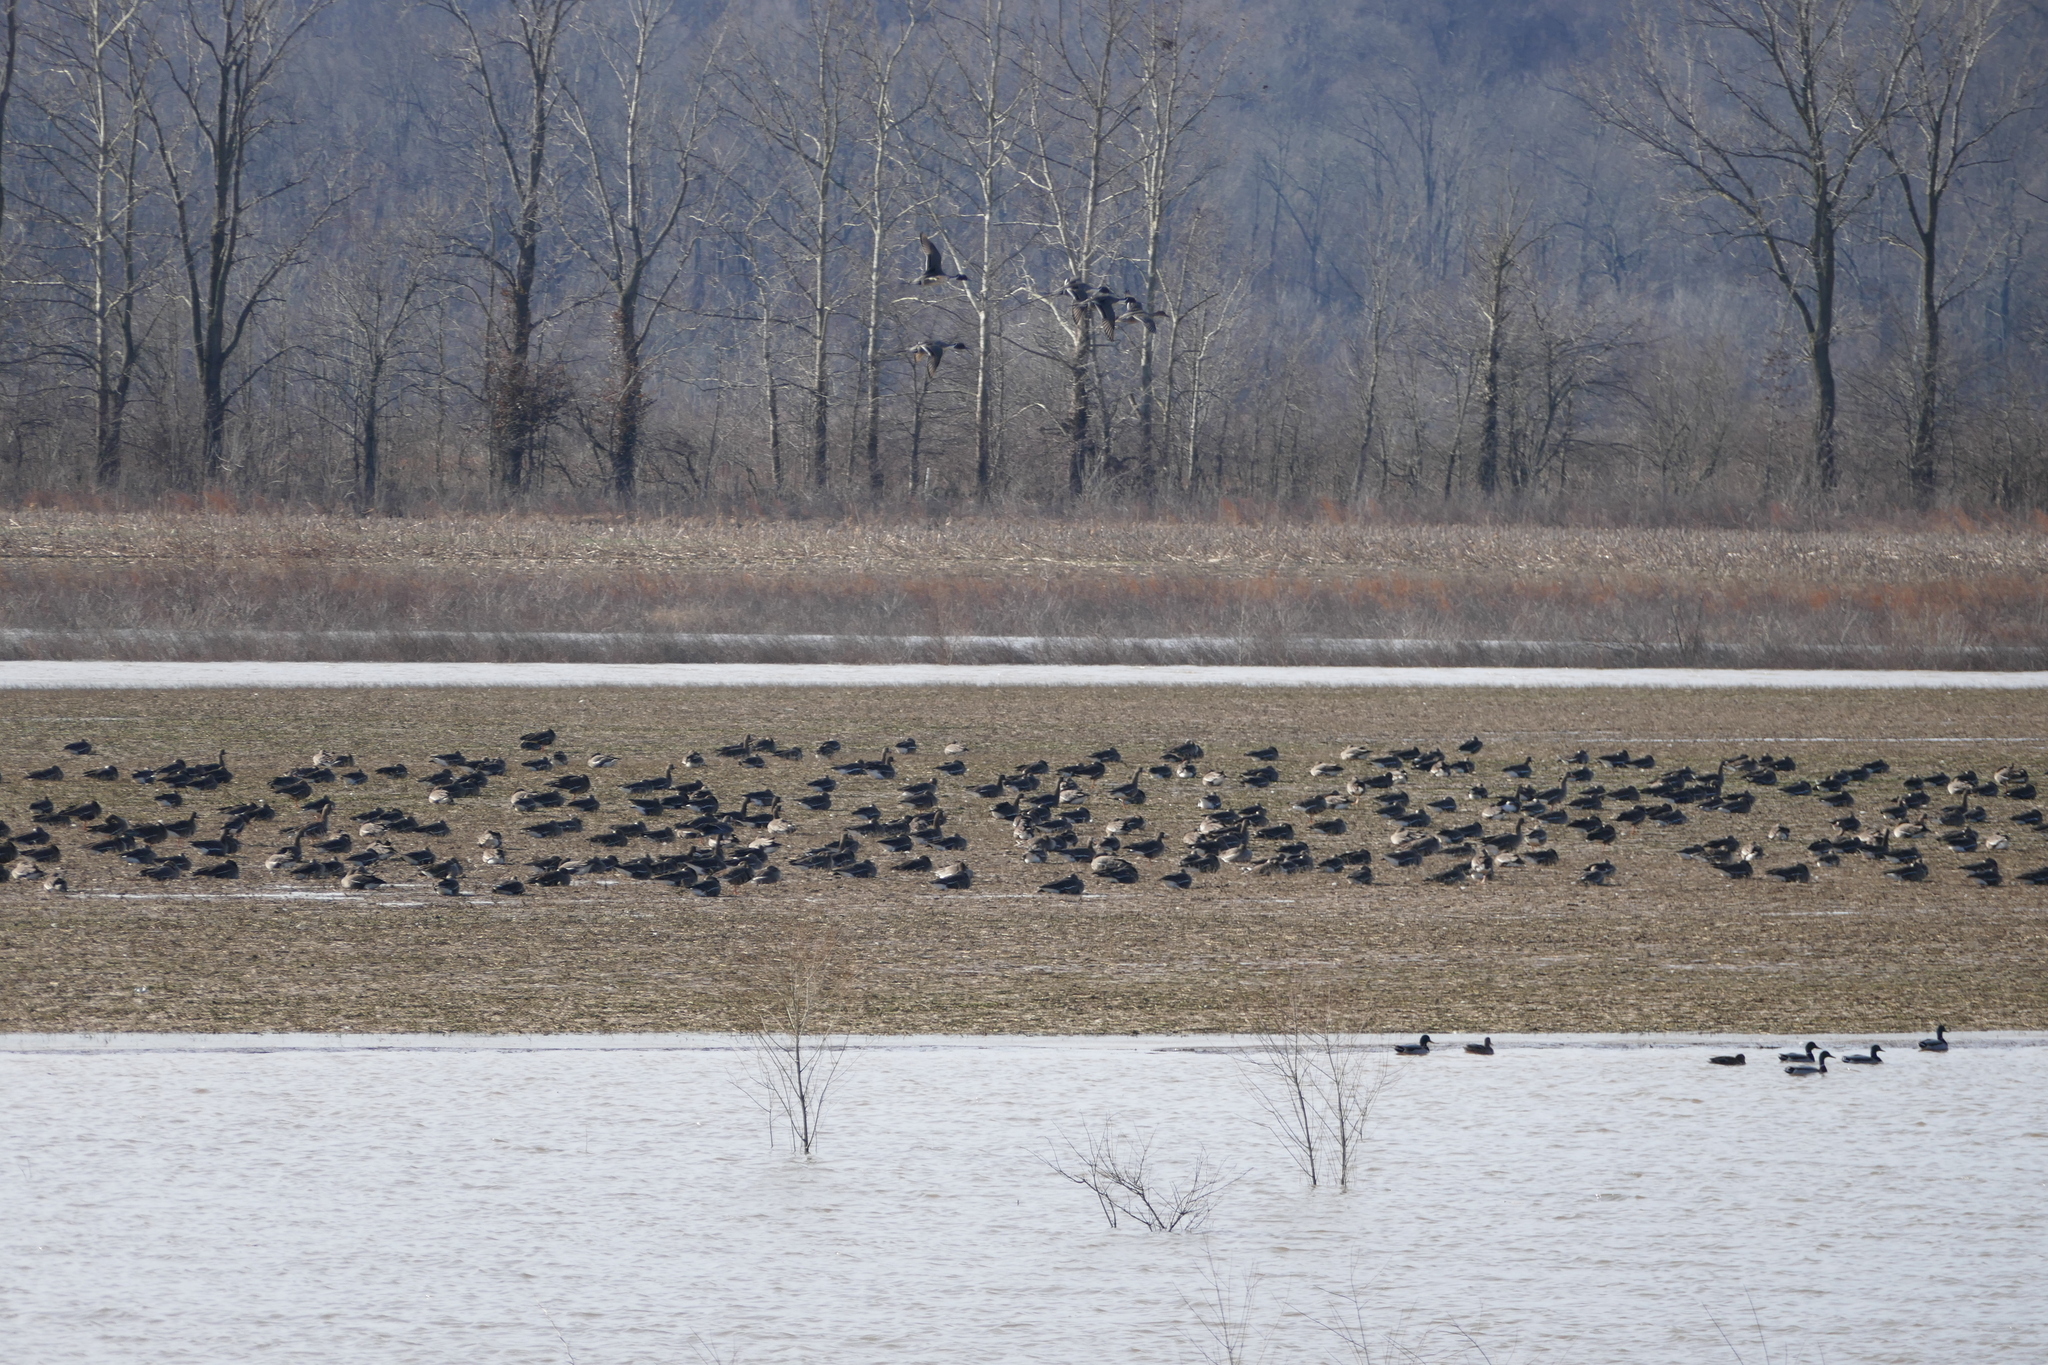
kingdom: Animalia
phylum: Chordata
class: Aves
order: Anseriformes
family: Anatidae
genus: Anser
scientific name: Anser albifrons
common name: Greater white-fronted goose
